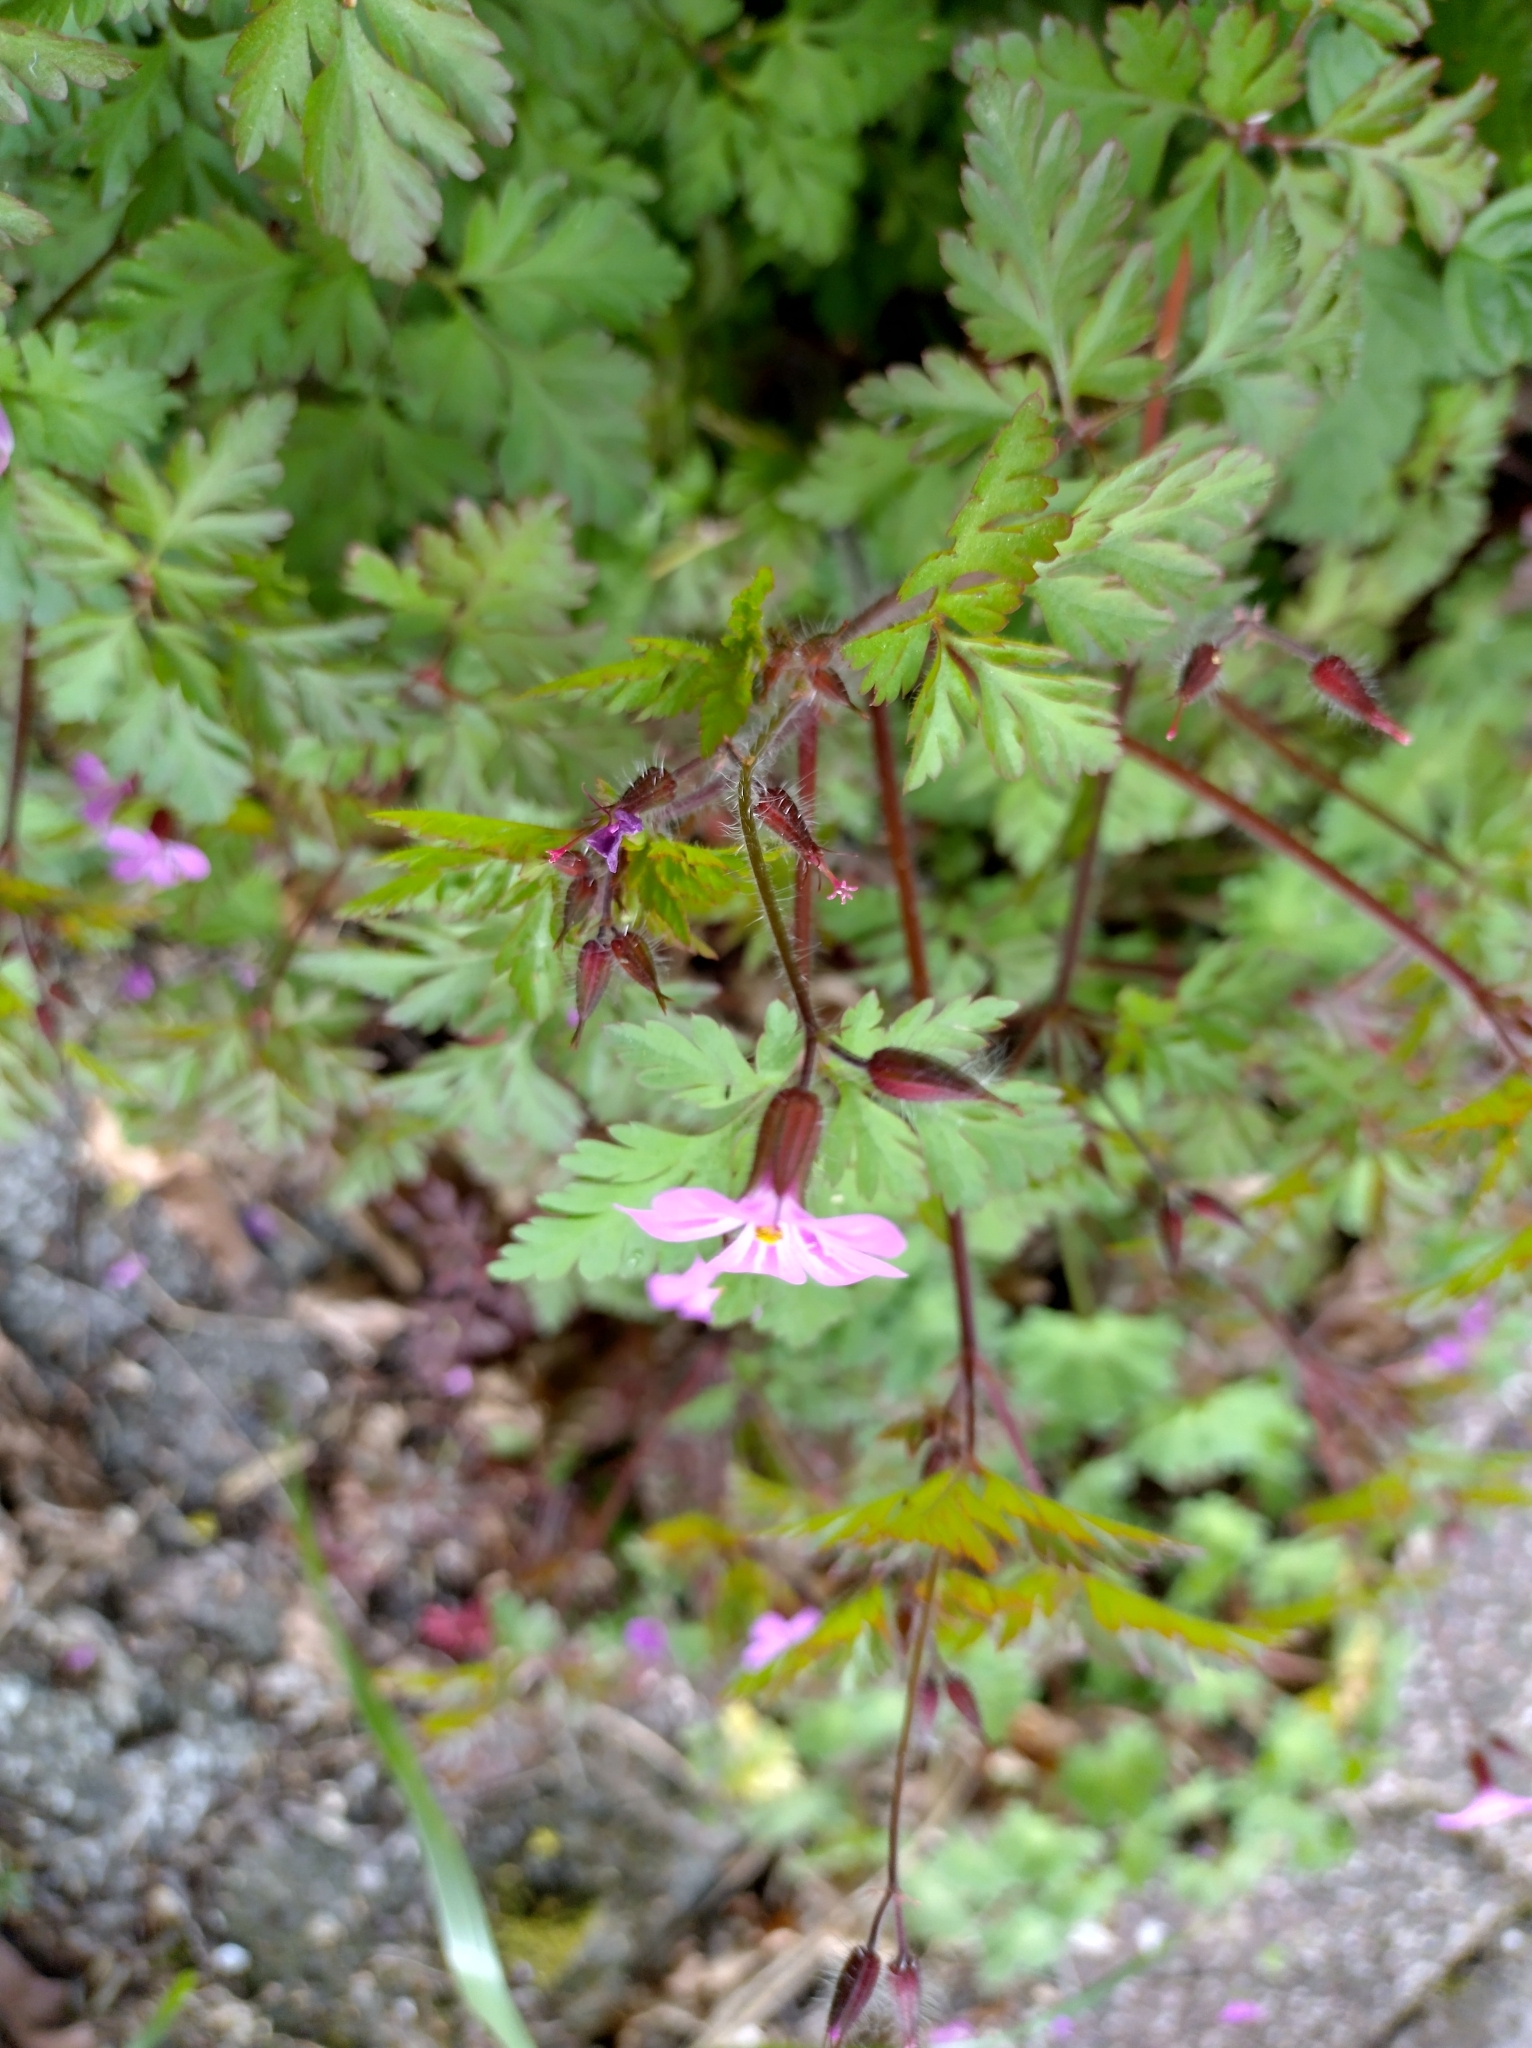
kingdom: Plantae
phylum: Tracheophyta
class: Magnoliopsida
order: Geraniales
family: Geraniaceae
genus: Geranium
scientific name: Geranium robertianum
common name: Herb-robert
